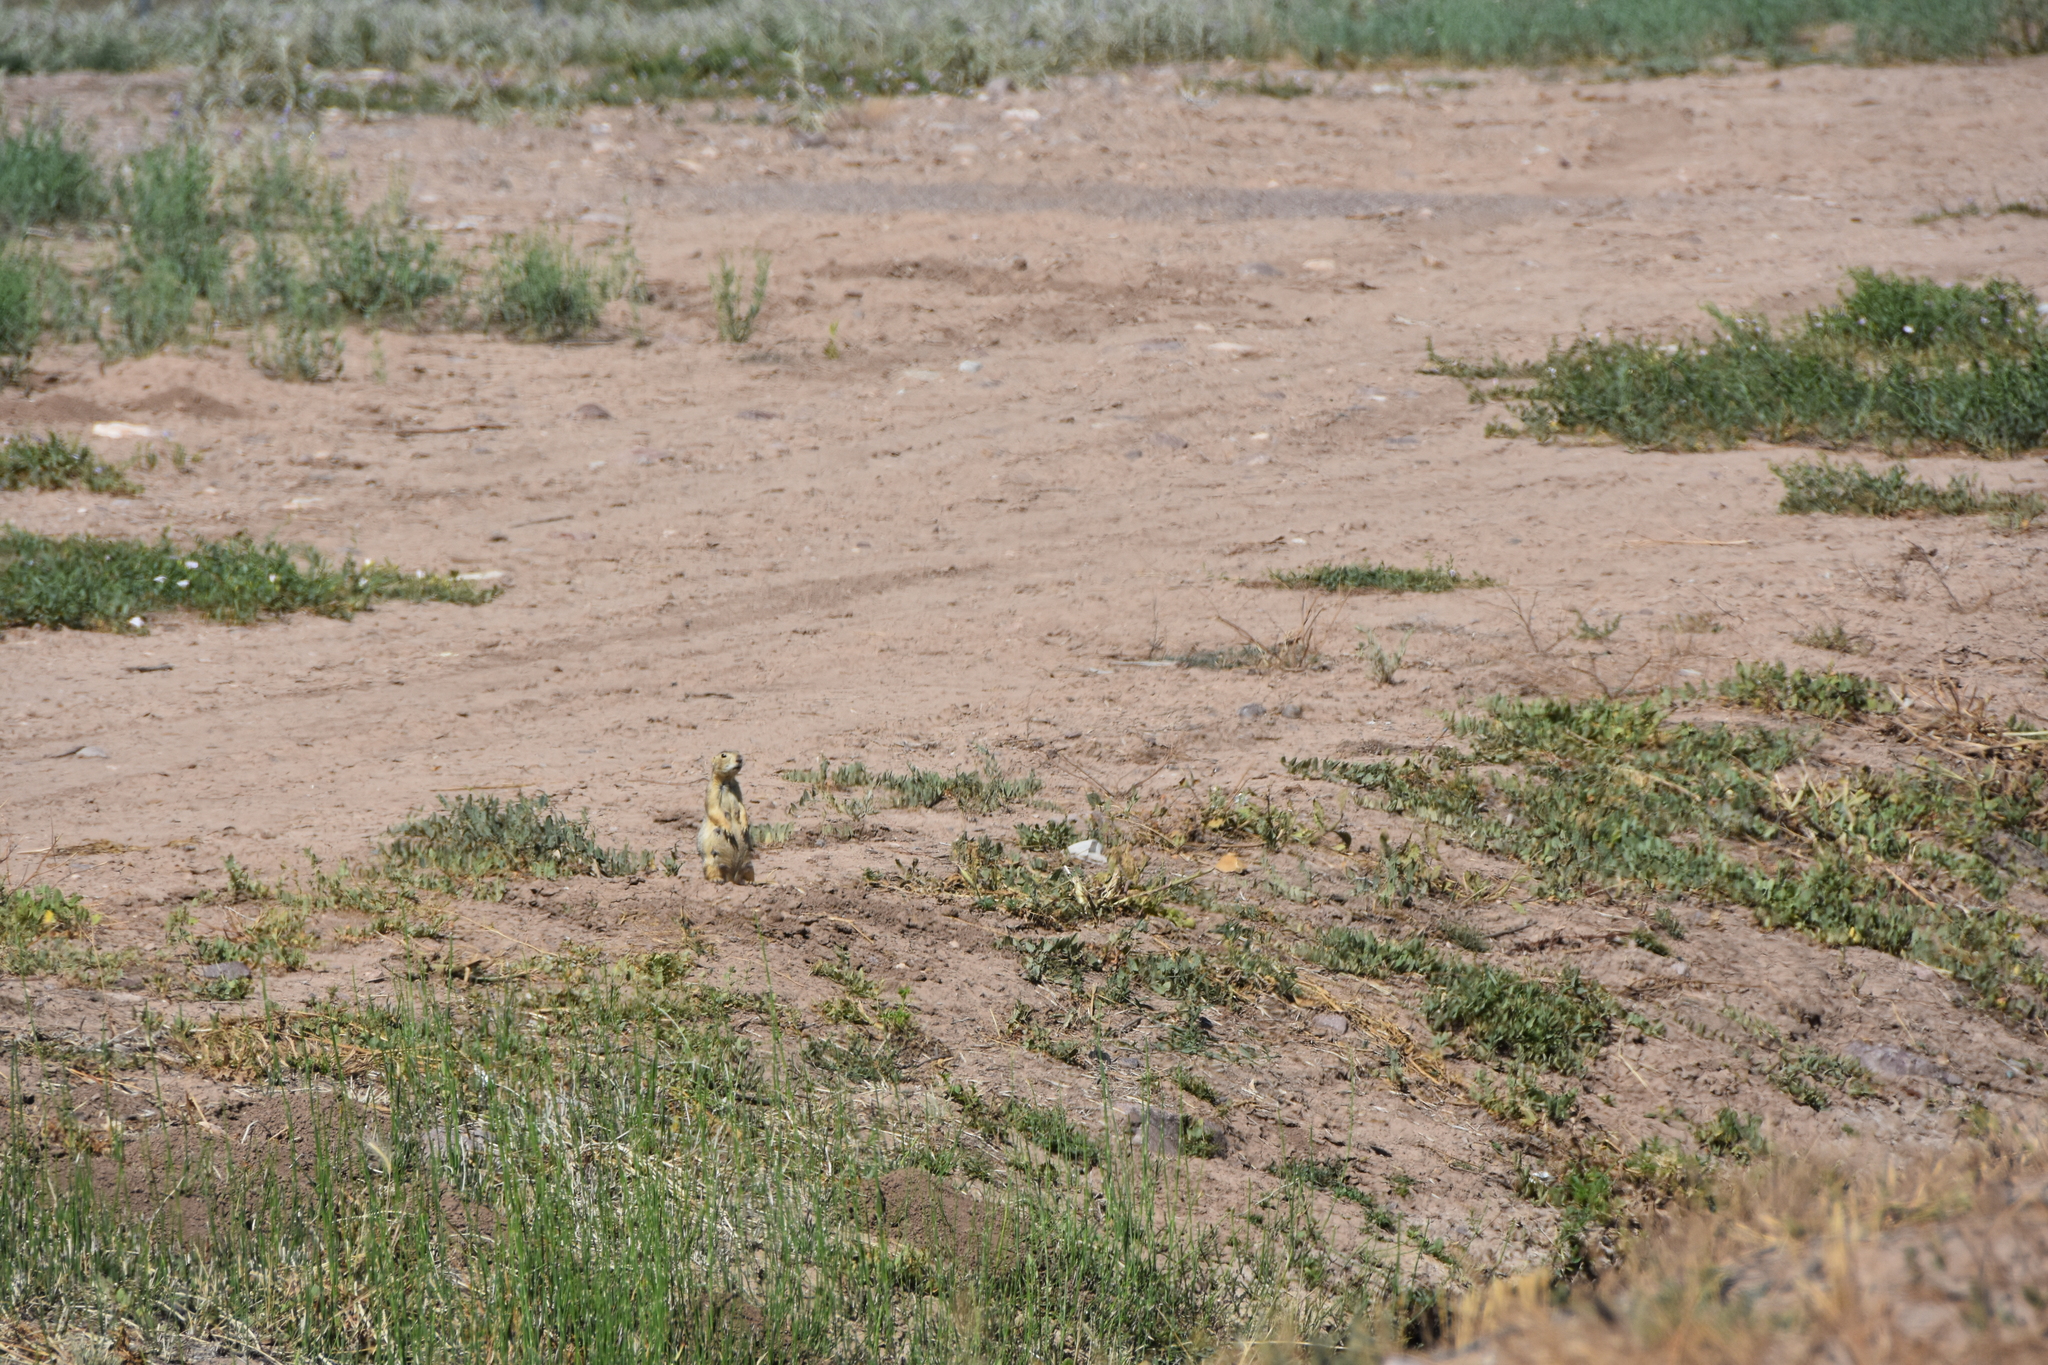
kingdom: Animalia
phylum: Chordata
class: Mammalia
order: Rodentia
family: Sciuridae
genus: Cynomys
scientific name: Cynomys gunnisoni
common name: Gunnison's prairie dog
